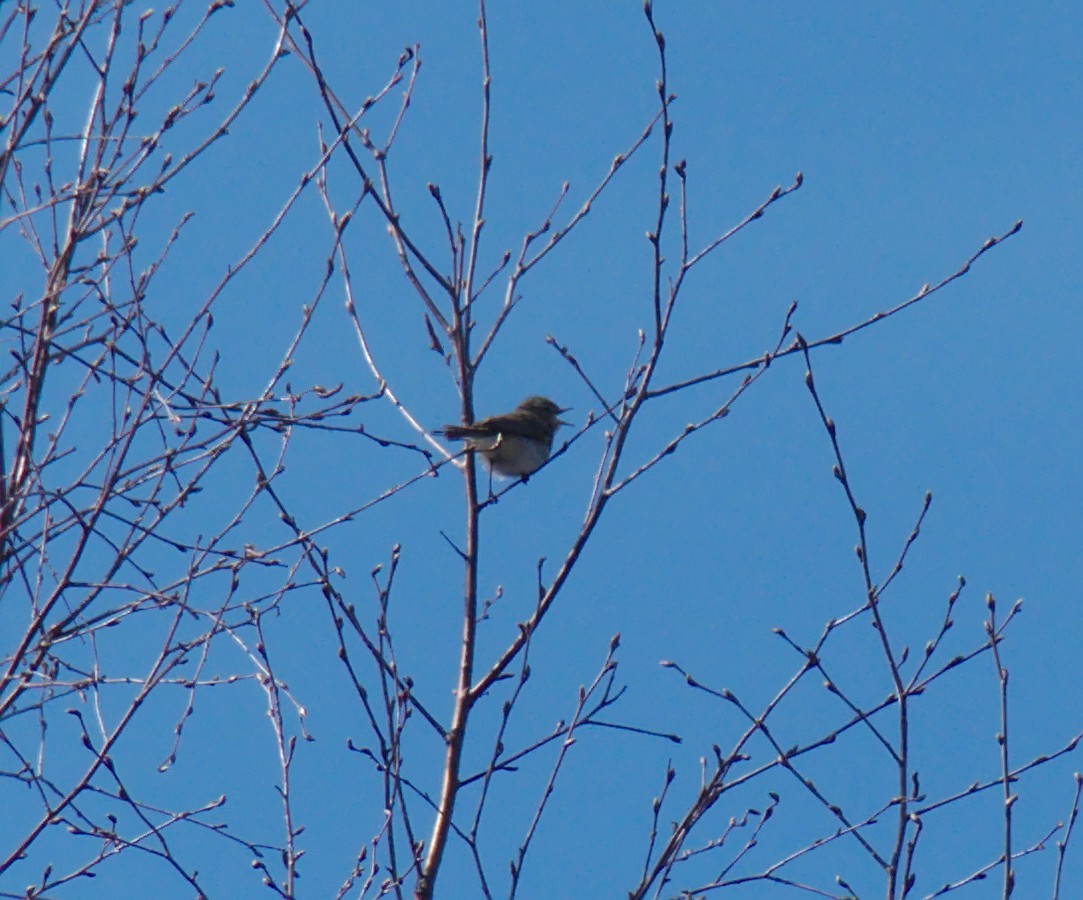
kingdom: Animalia
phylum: Chordata
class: Aves
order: Passeriformes
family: Phylloscopidae
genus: Phylloscopus
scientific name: Phylloscopus collybita
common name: Common chiffchaff
